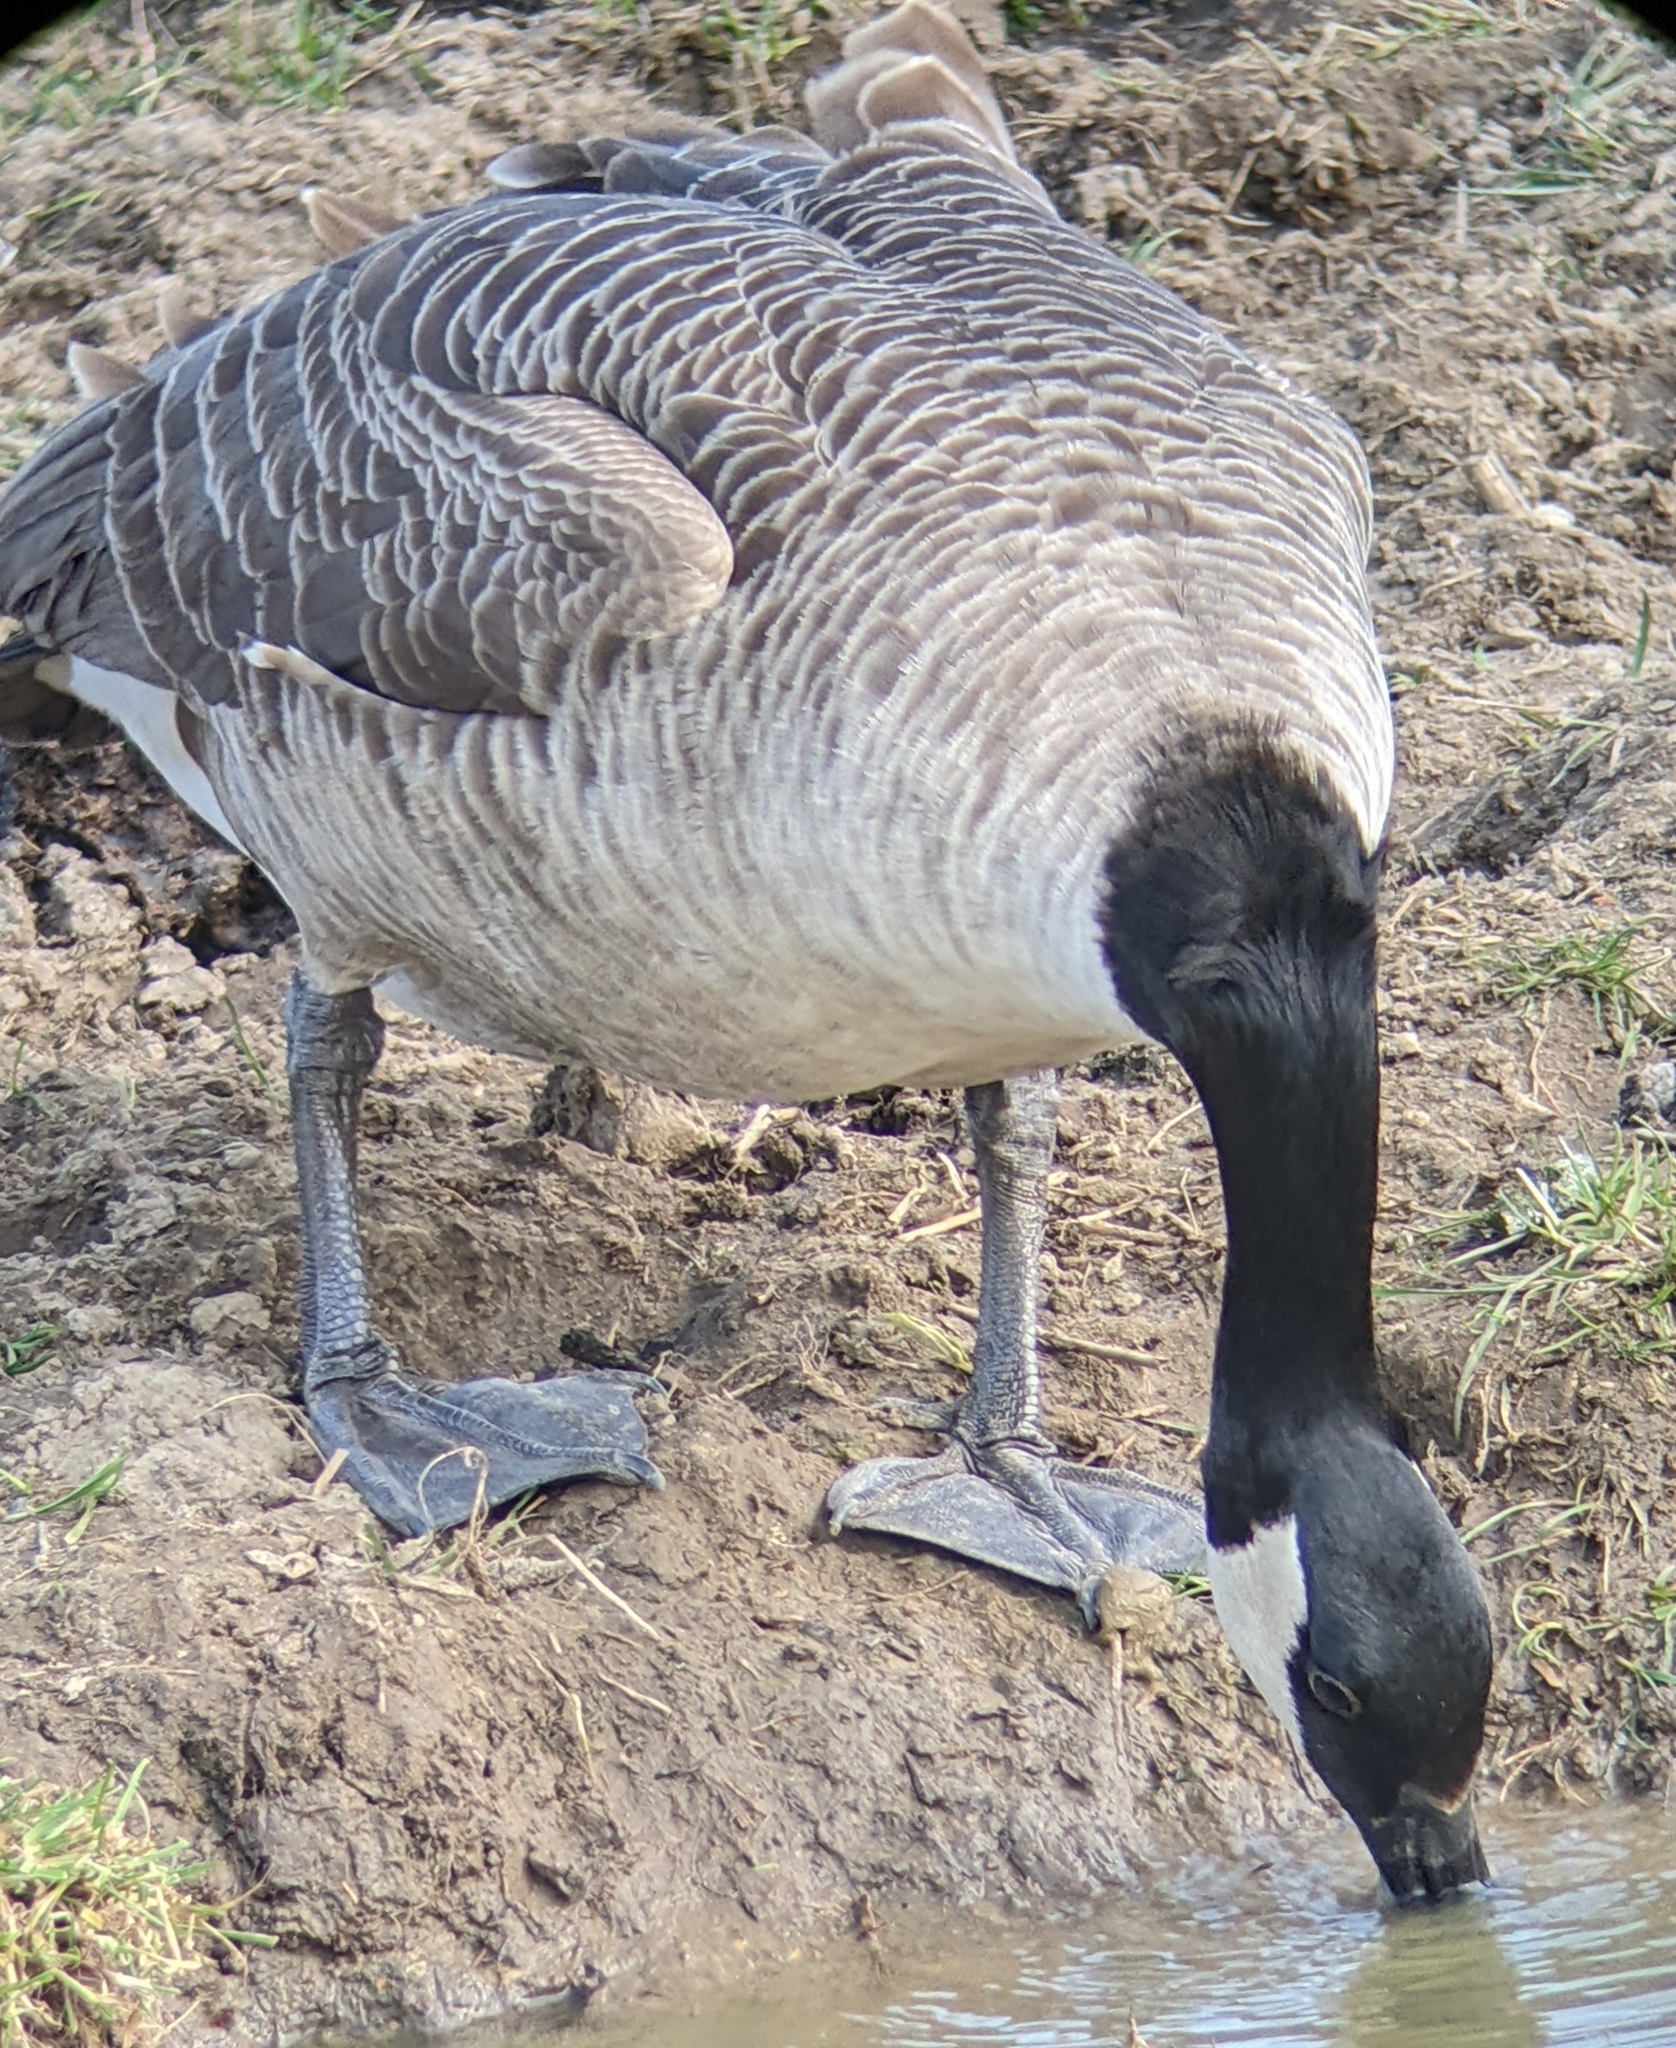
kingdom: Animalia
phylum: Chordata
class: Aves
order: Anseriformes
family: Anatidae
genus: Branta
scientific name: Branta canadensis
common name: Canada goose
